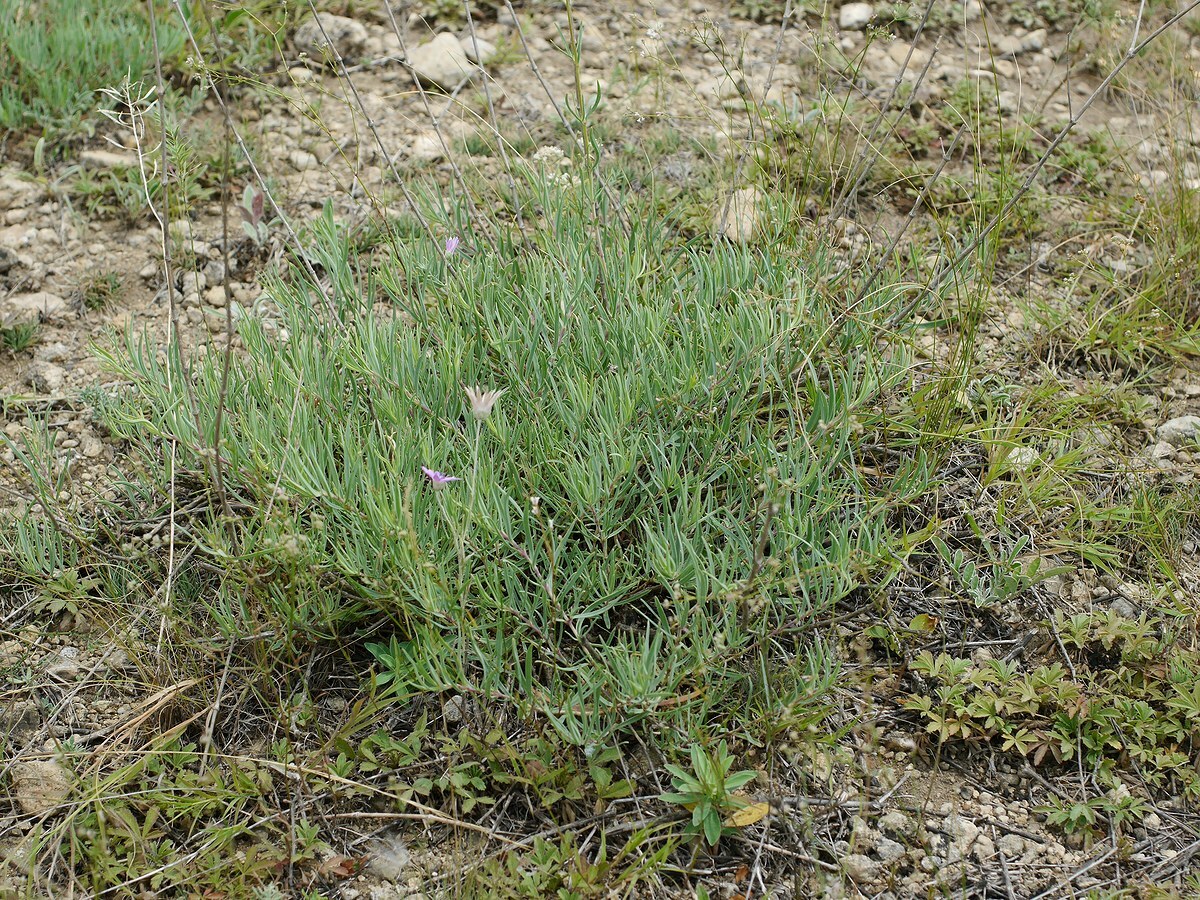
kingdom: Plantae
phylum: Tracheophyta
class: Magnoliopsida
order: Caryophyllales
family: Caryophyllaceae
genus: Gypsophila
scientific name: Gypsophila collina
